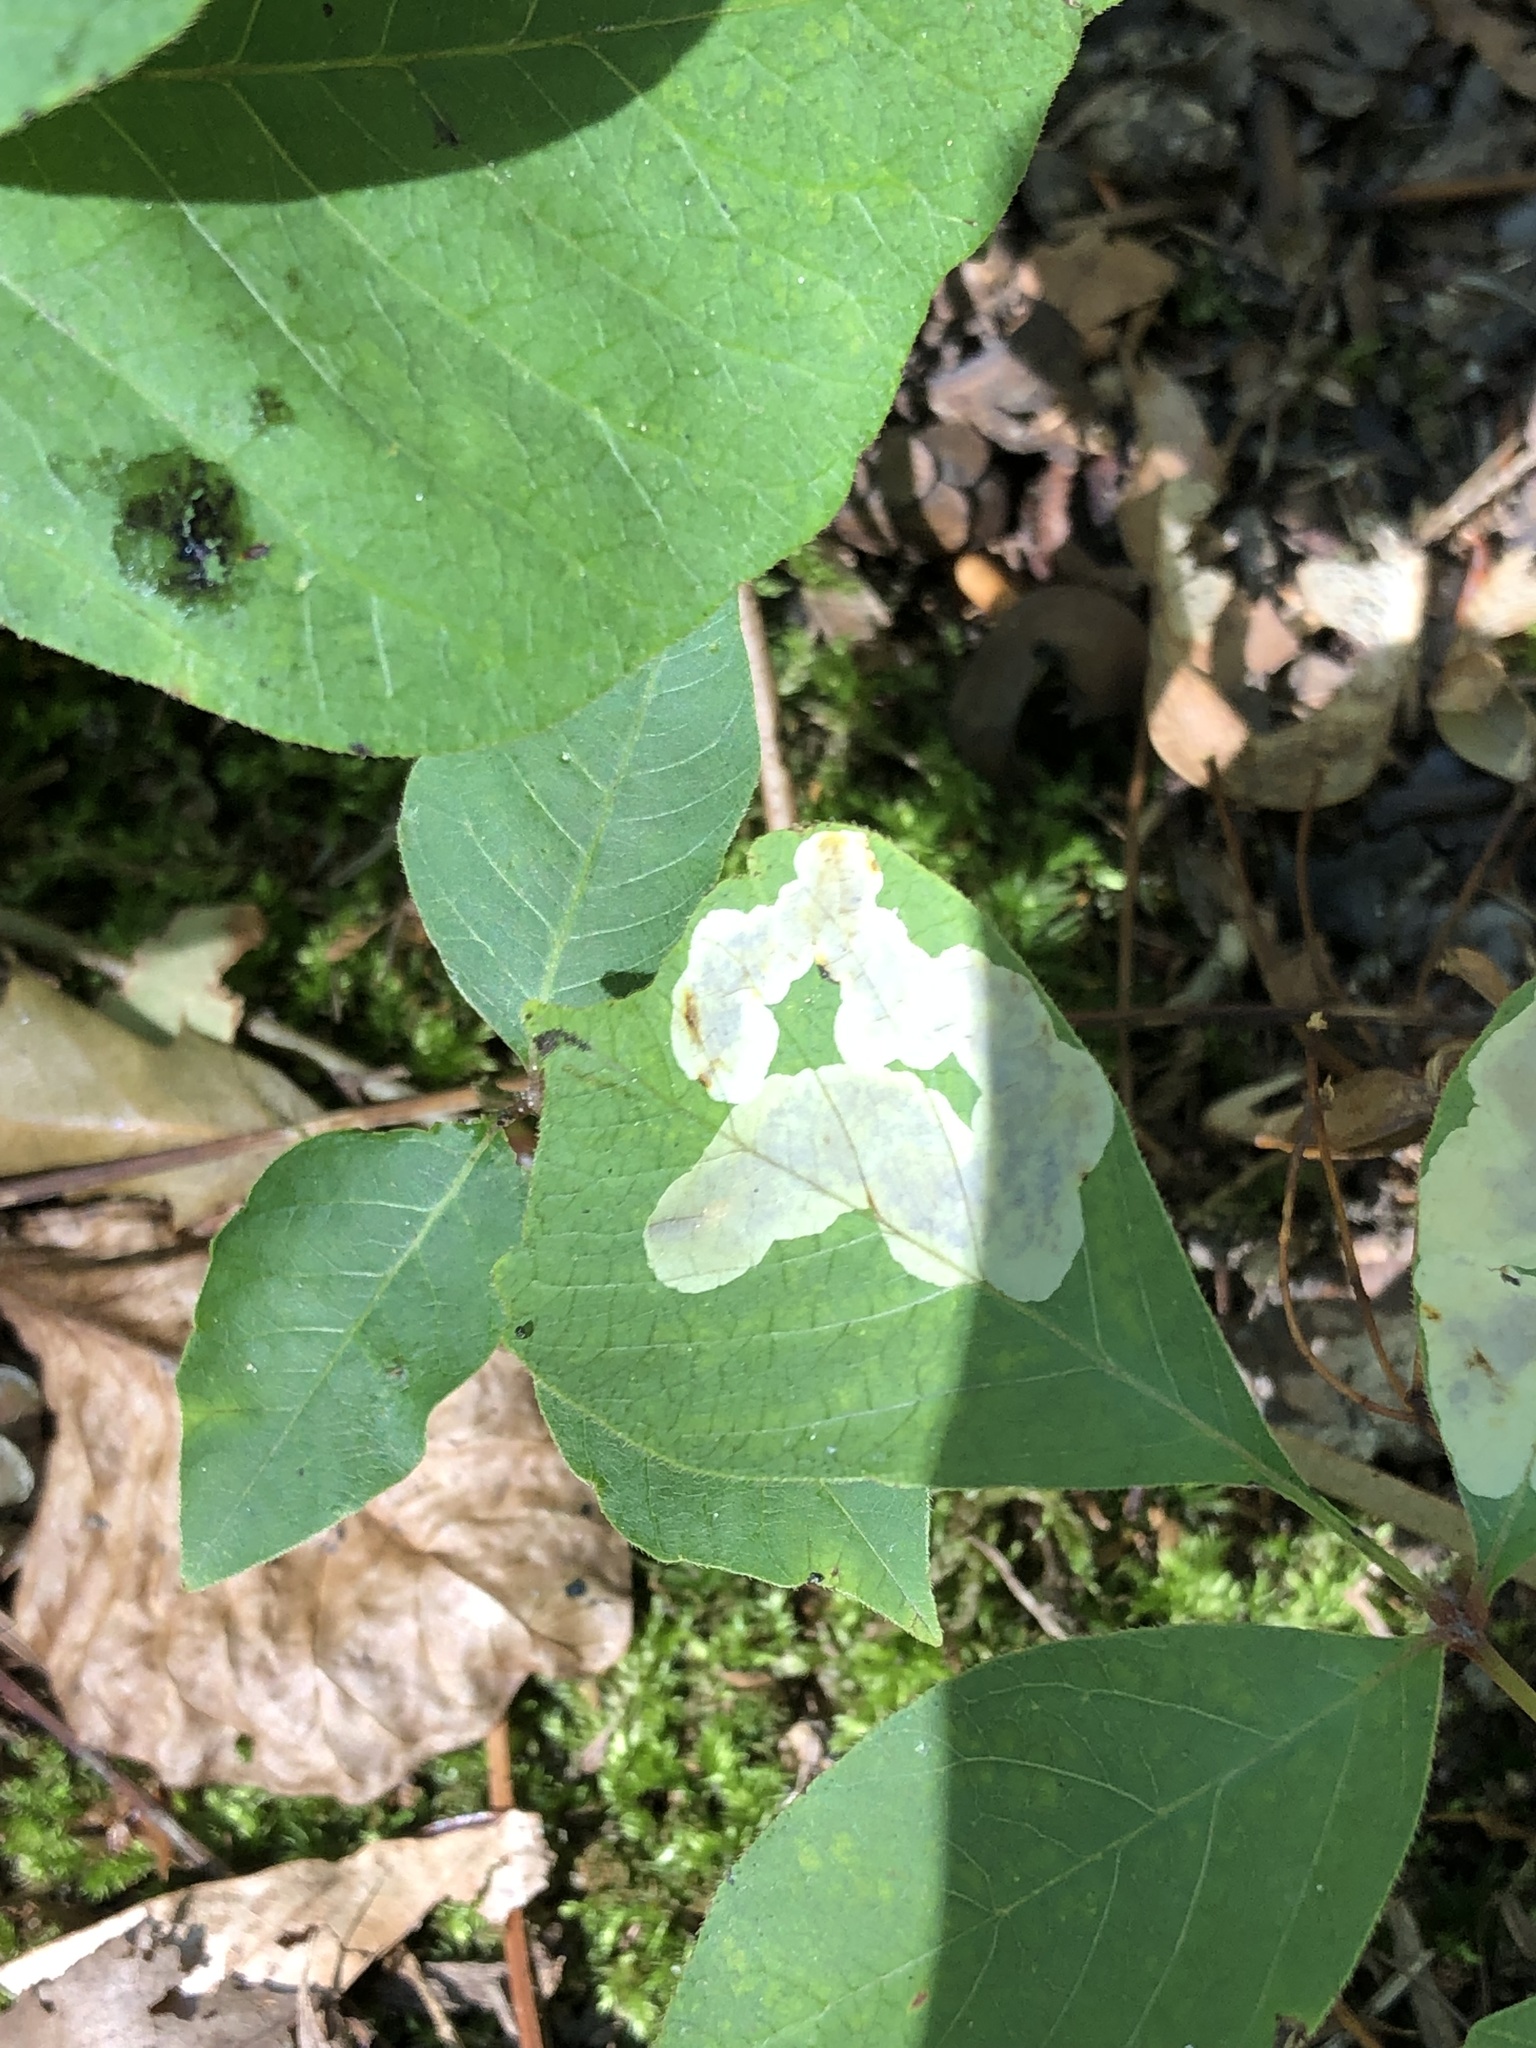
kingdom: Animalia
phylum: Arthropoda
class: Insecta
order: Lepidoptera
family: Gracillariidae
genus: Cameraria
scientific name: Cameraria guttifinitella
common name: Poison ivy leaf-miner moth
